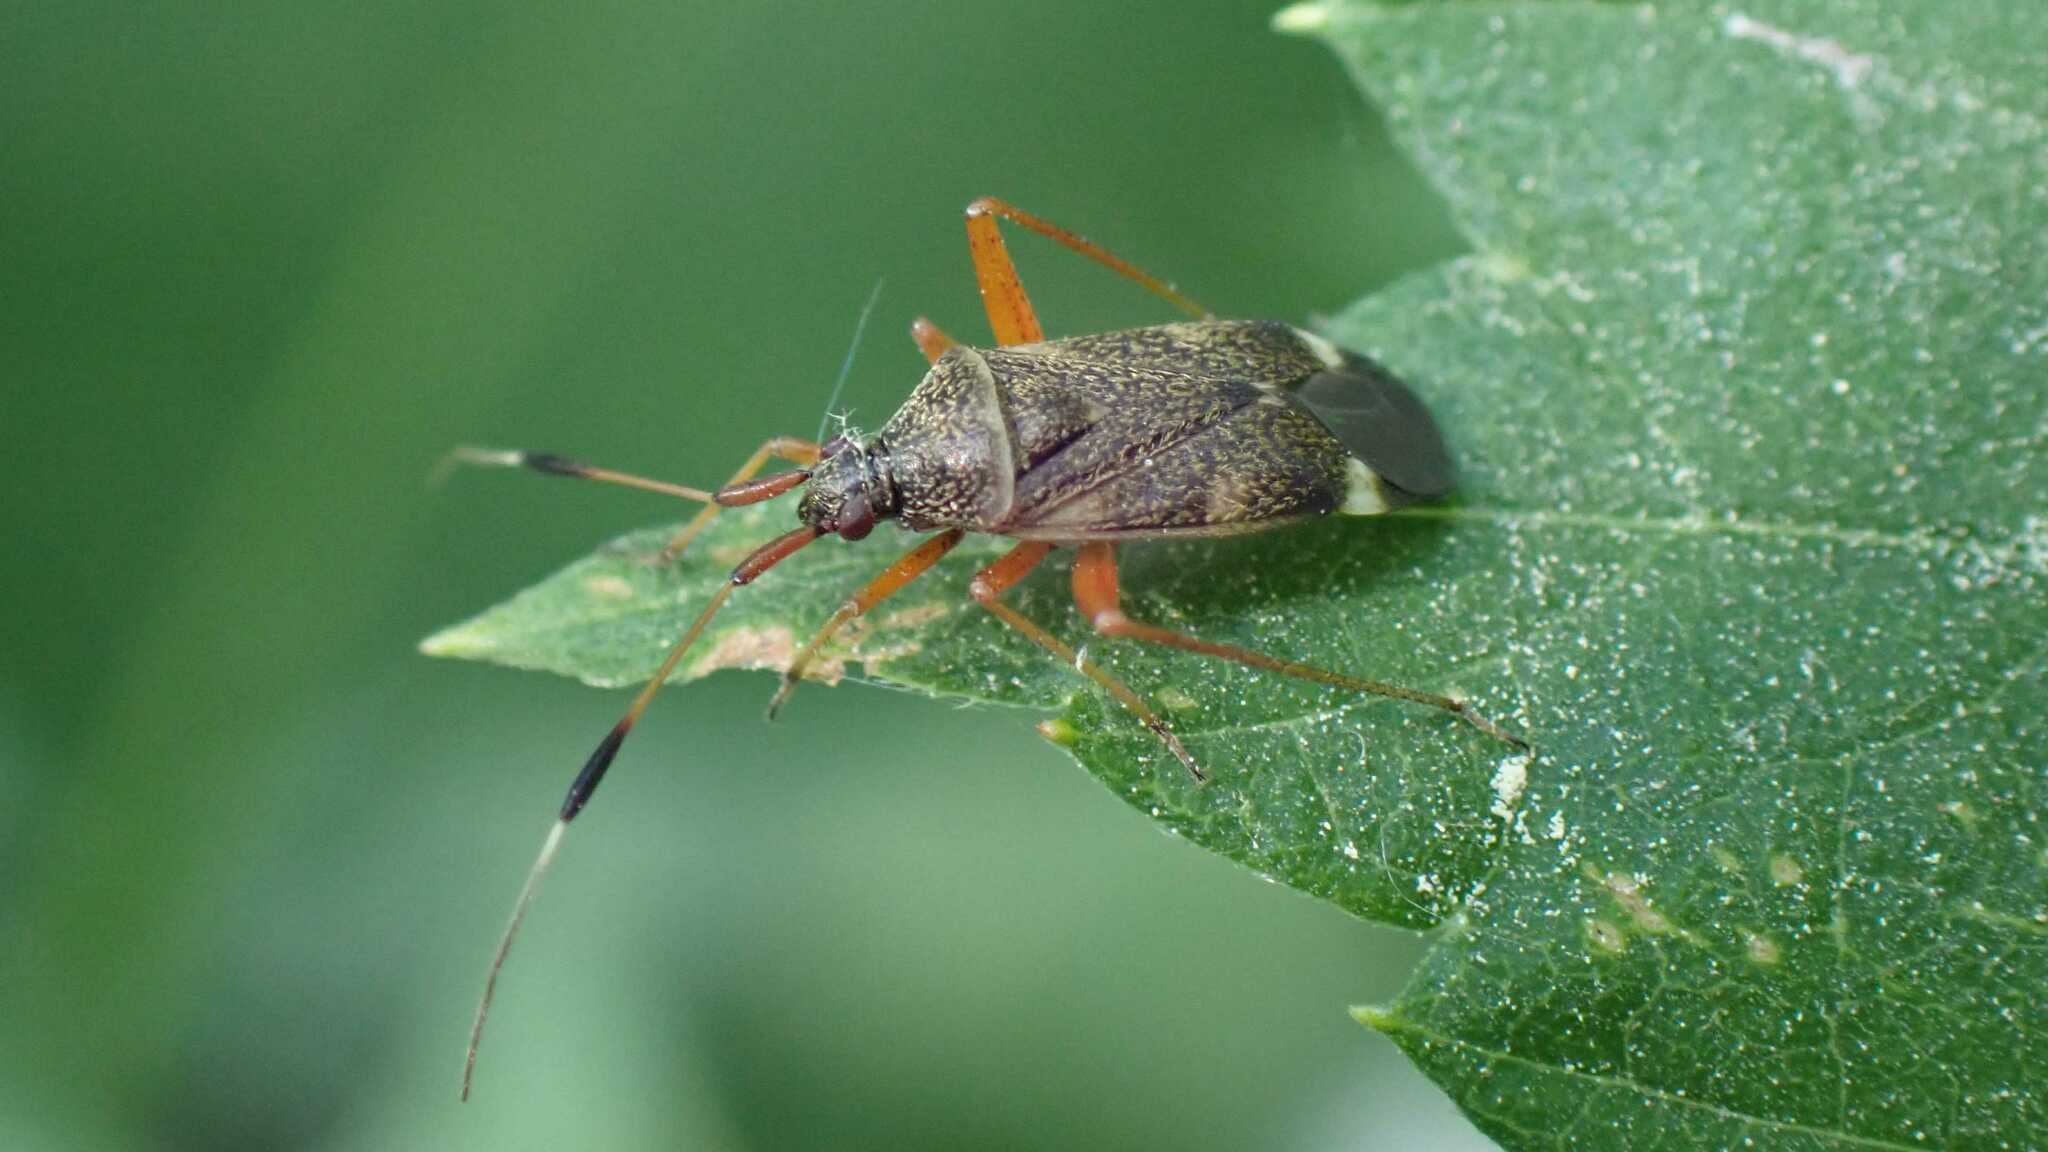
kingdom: Animalia
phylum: Arthropoda
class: Insecta
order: Hemiptera
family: Miridae
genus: Closterotomus
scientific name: Closterotomus biclavatus
